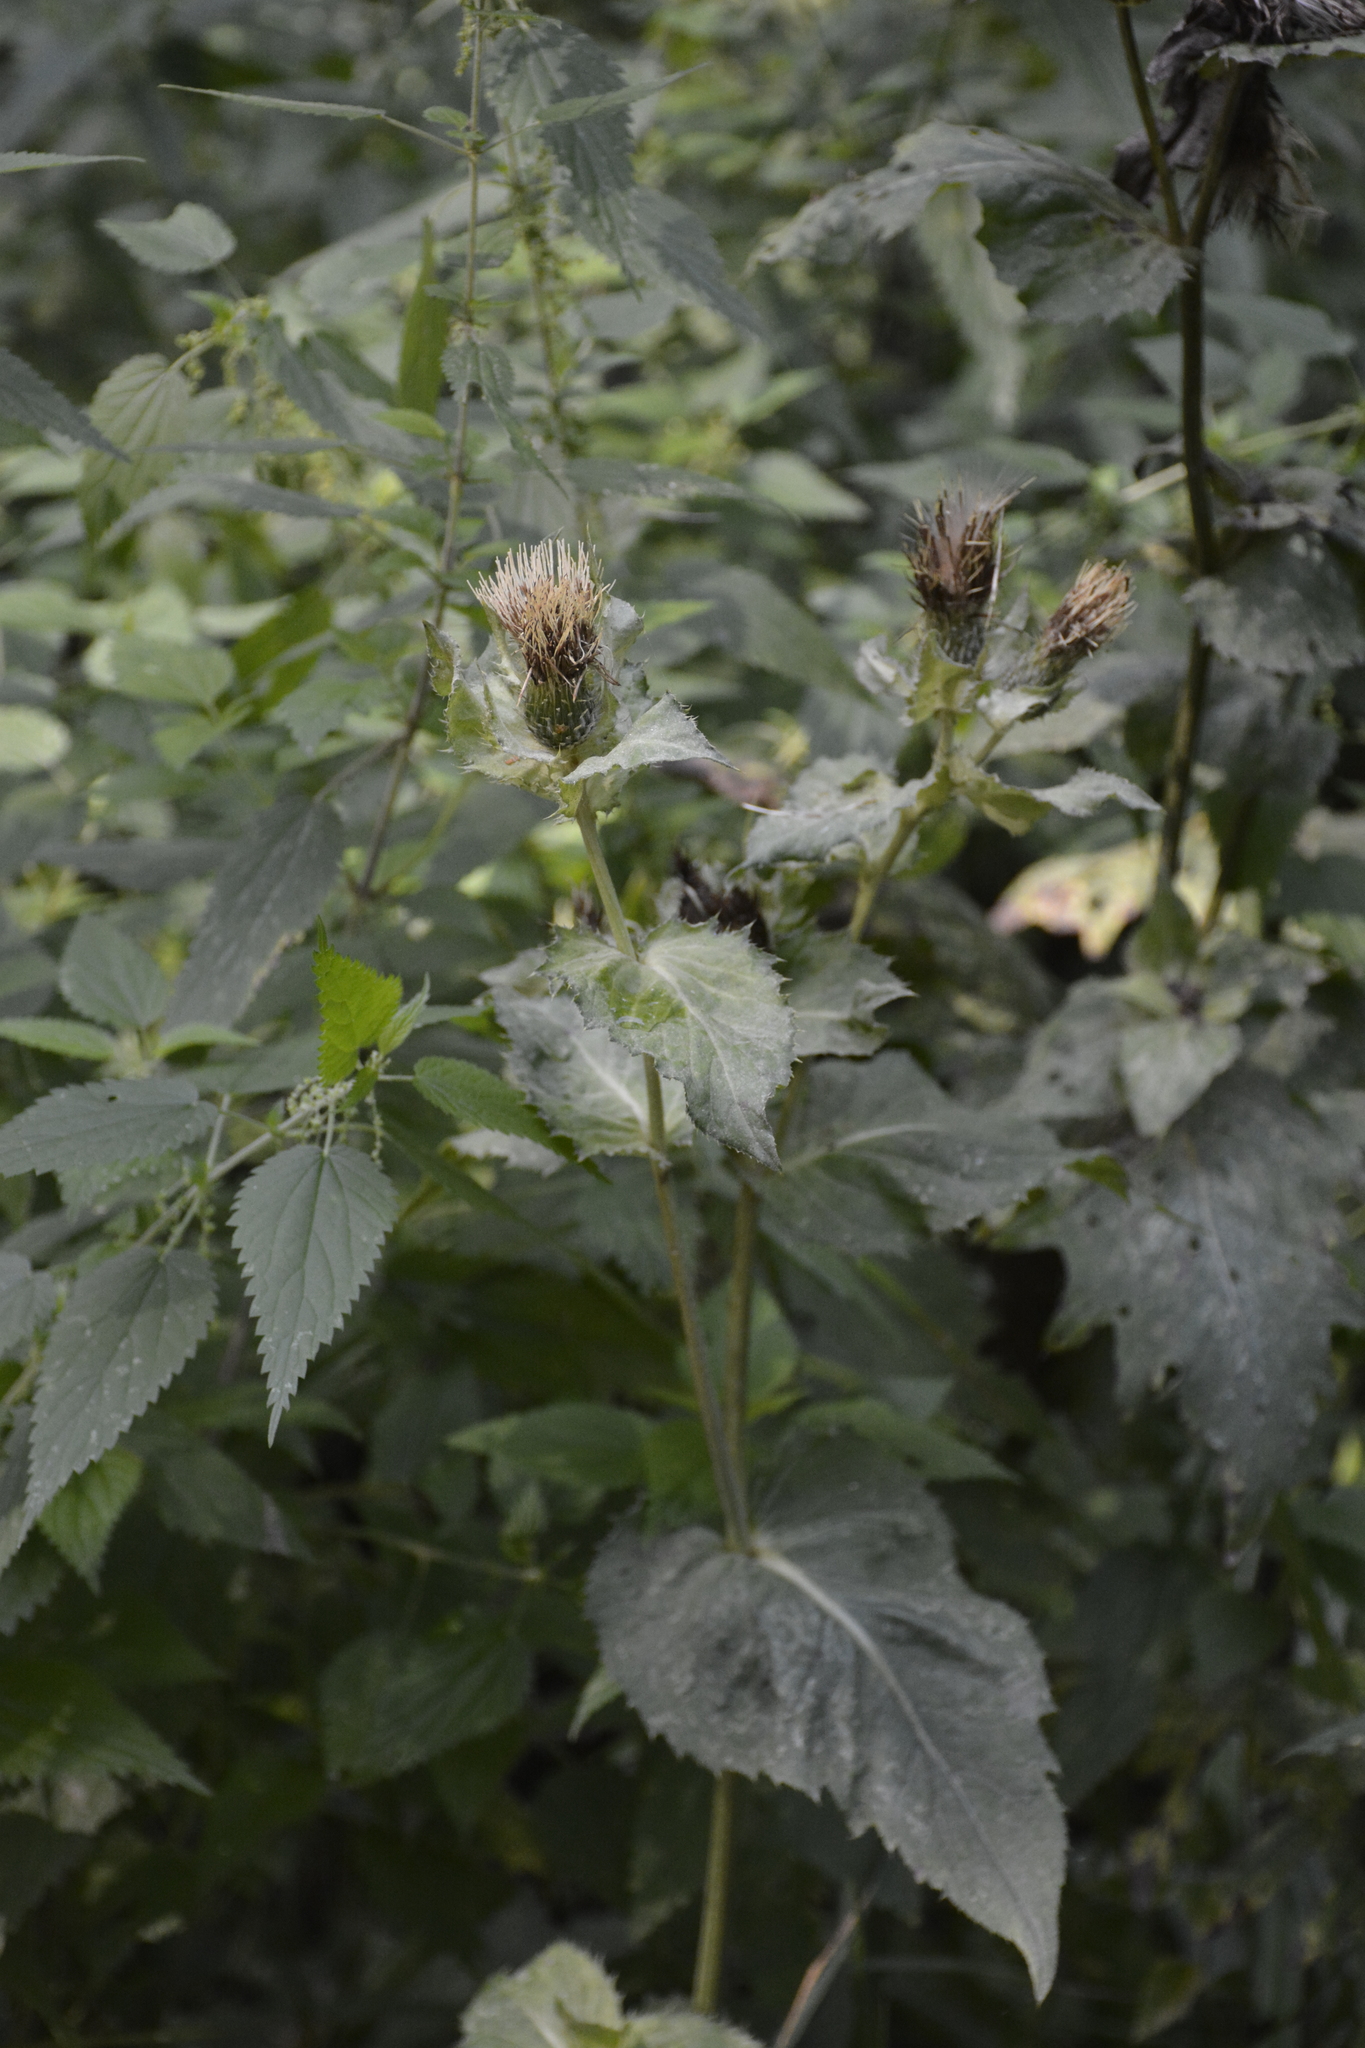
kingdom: Plantae
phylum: Tracheophyta
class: Magnoliopsida
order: Asterales
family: Asteraceae
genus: Cirsium
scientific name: Cirsium oleraceum
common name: Cabbage thistle
